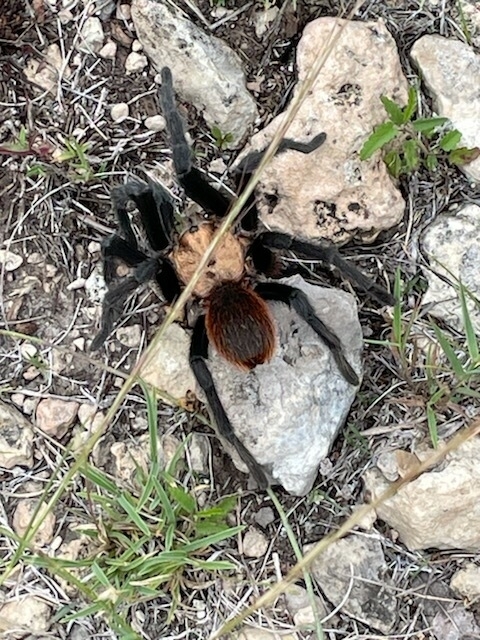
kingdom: Animalia
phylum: Arthropoda
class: Arachnida
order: Araneae
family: Theraphosidae
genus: Aphonopelma
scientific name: Aphonopelma hentzi
